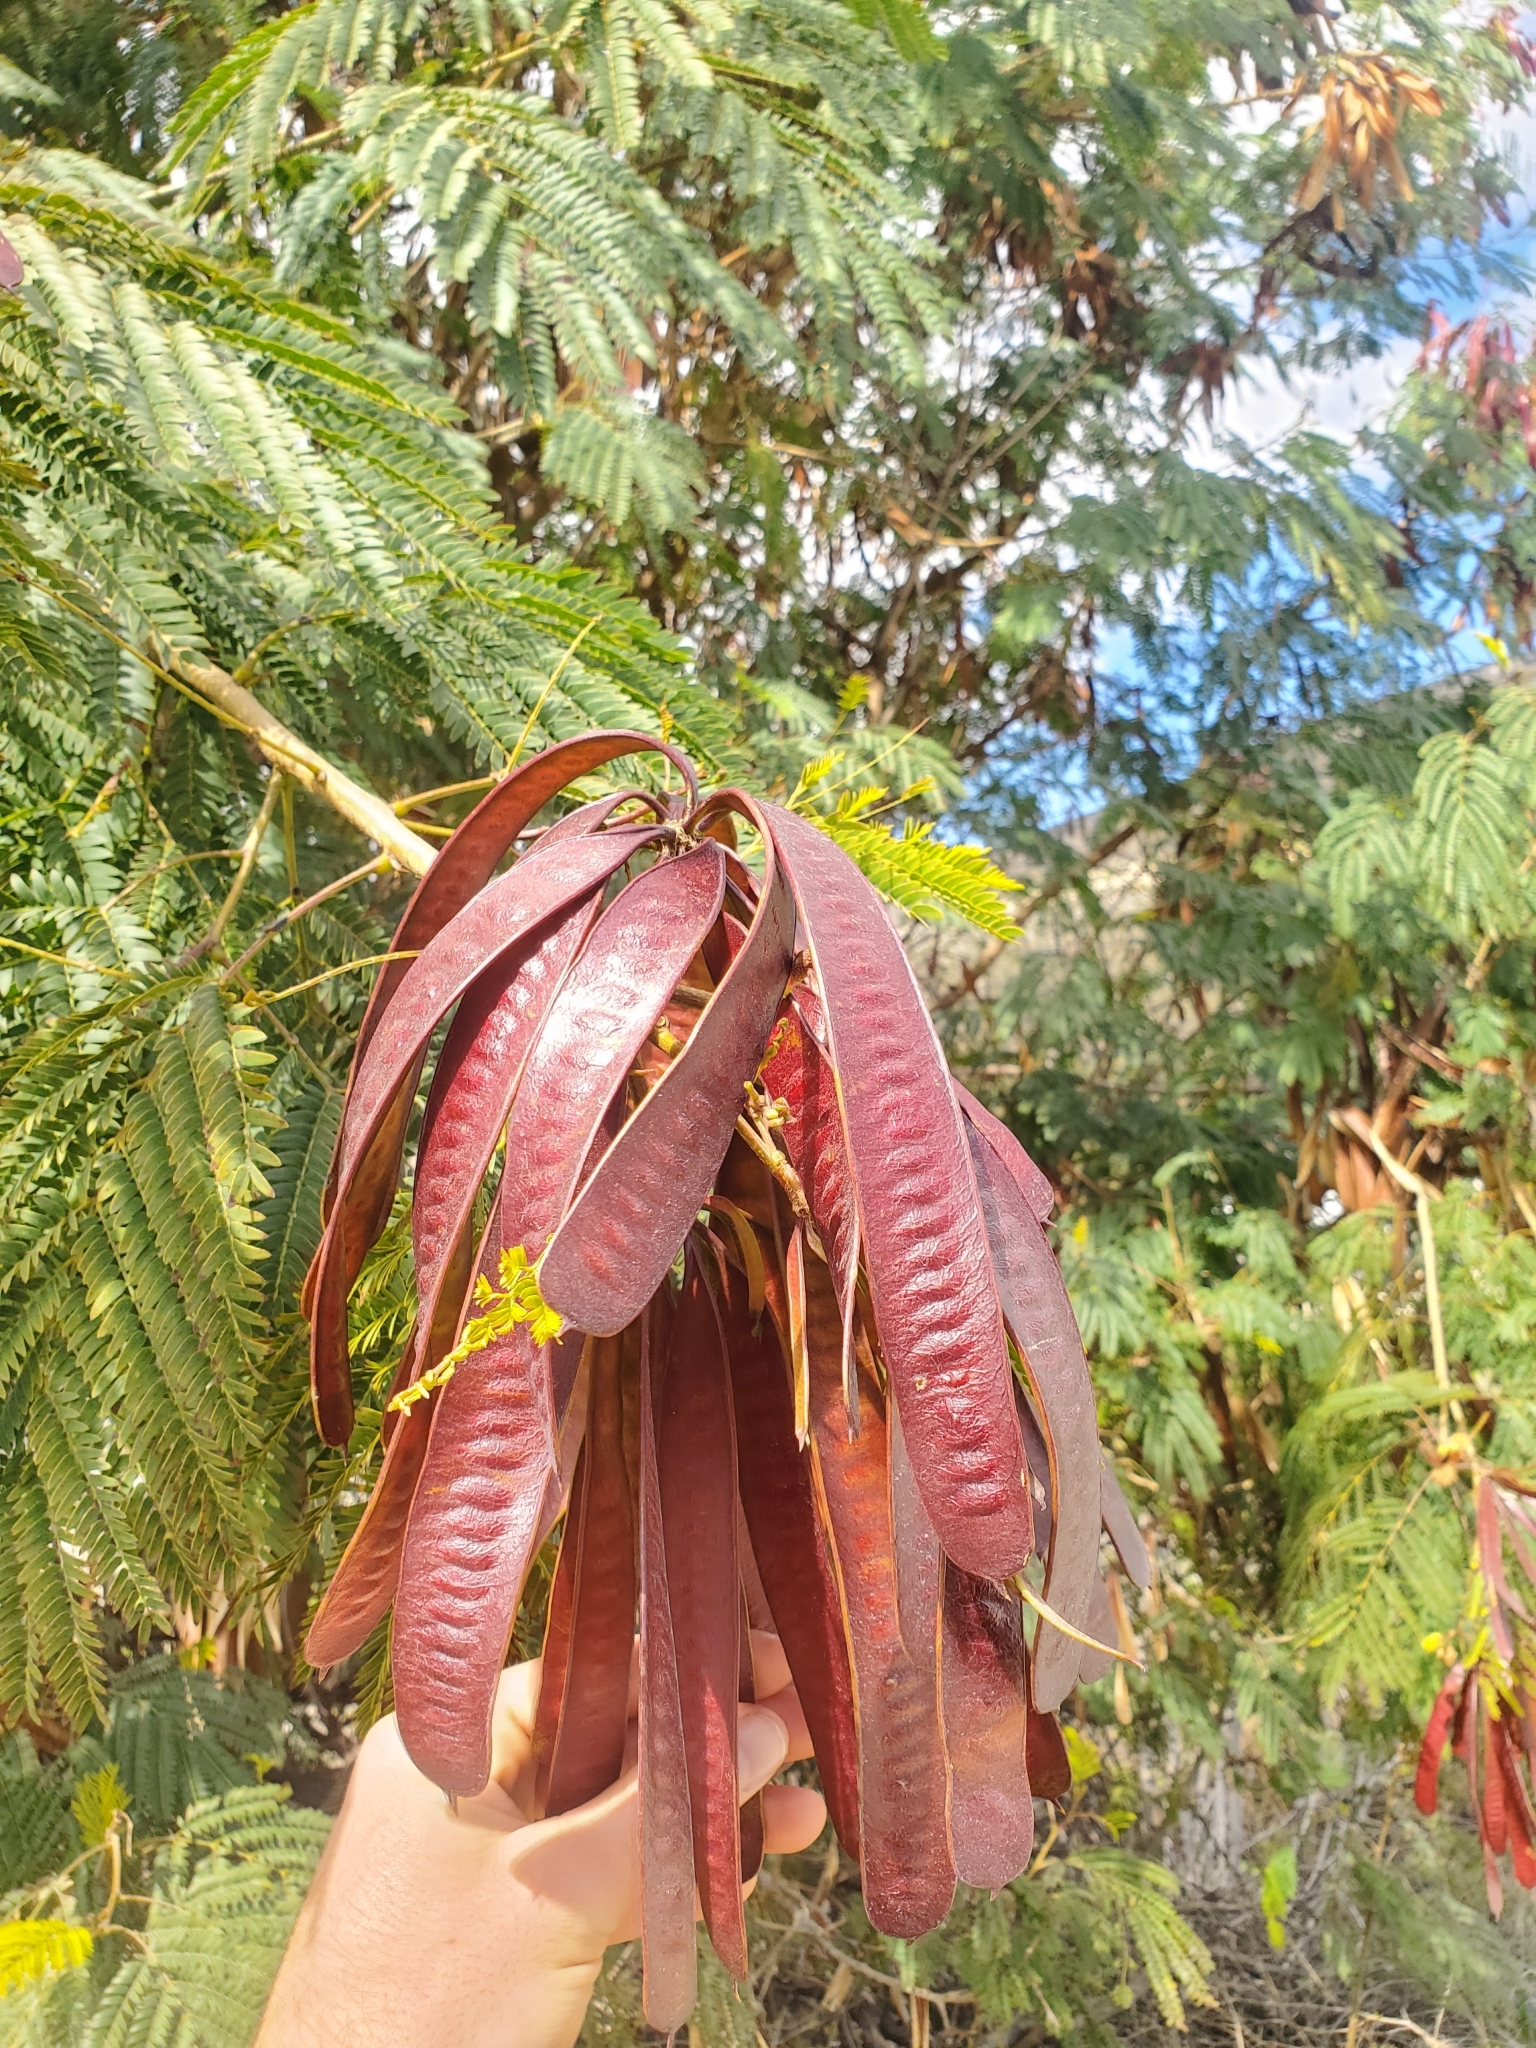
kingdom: Plantae
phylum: Tracheophyta
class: Magnoliopsida
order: Fabales
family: Fabaceae
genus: Leucaena
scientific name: Leucaena leucocephala
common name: White leadtree
